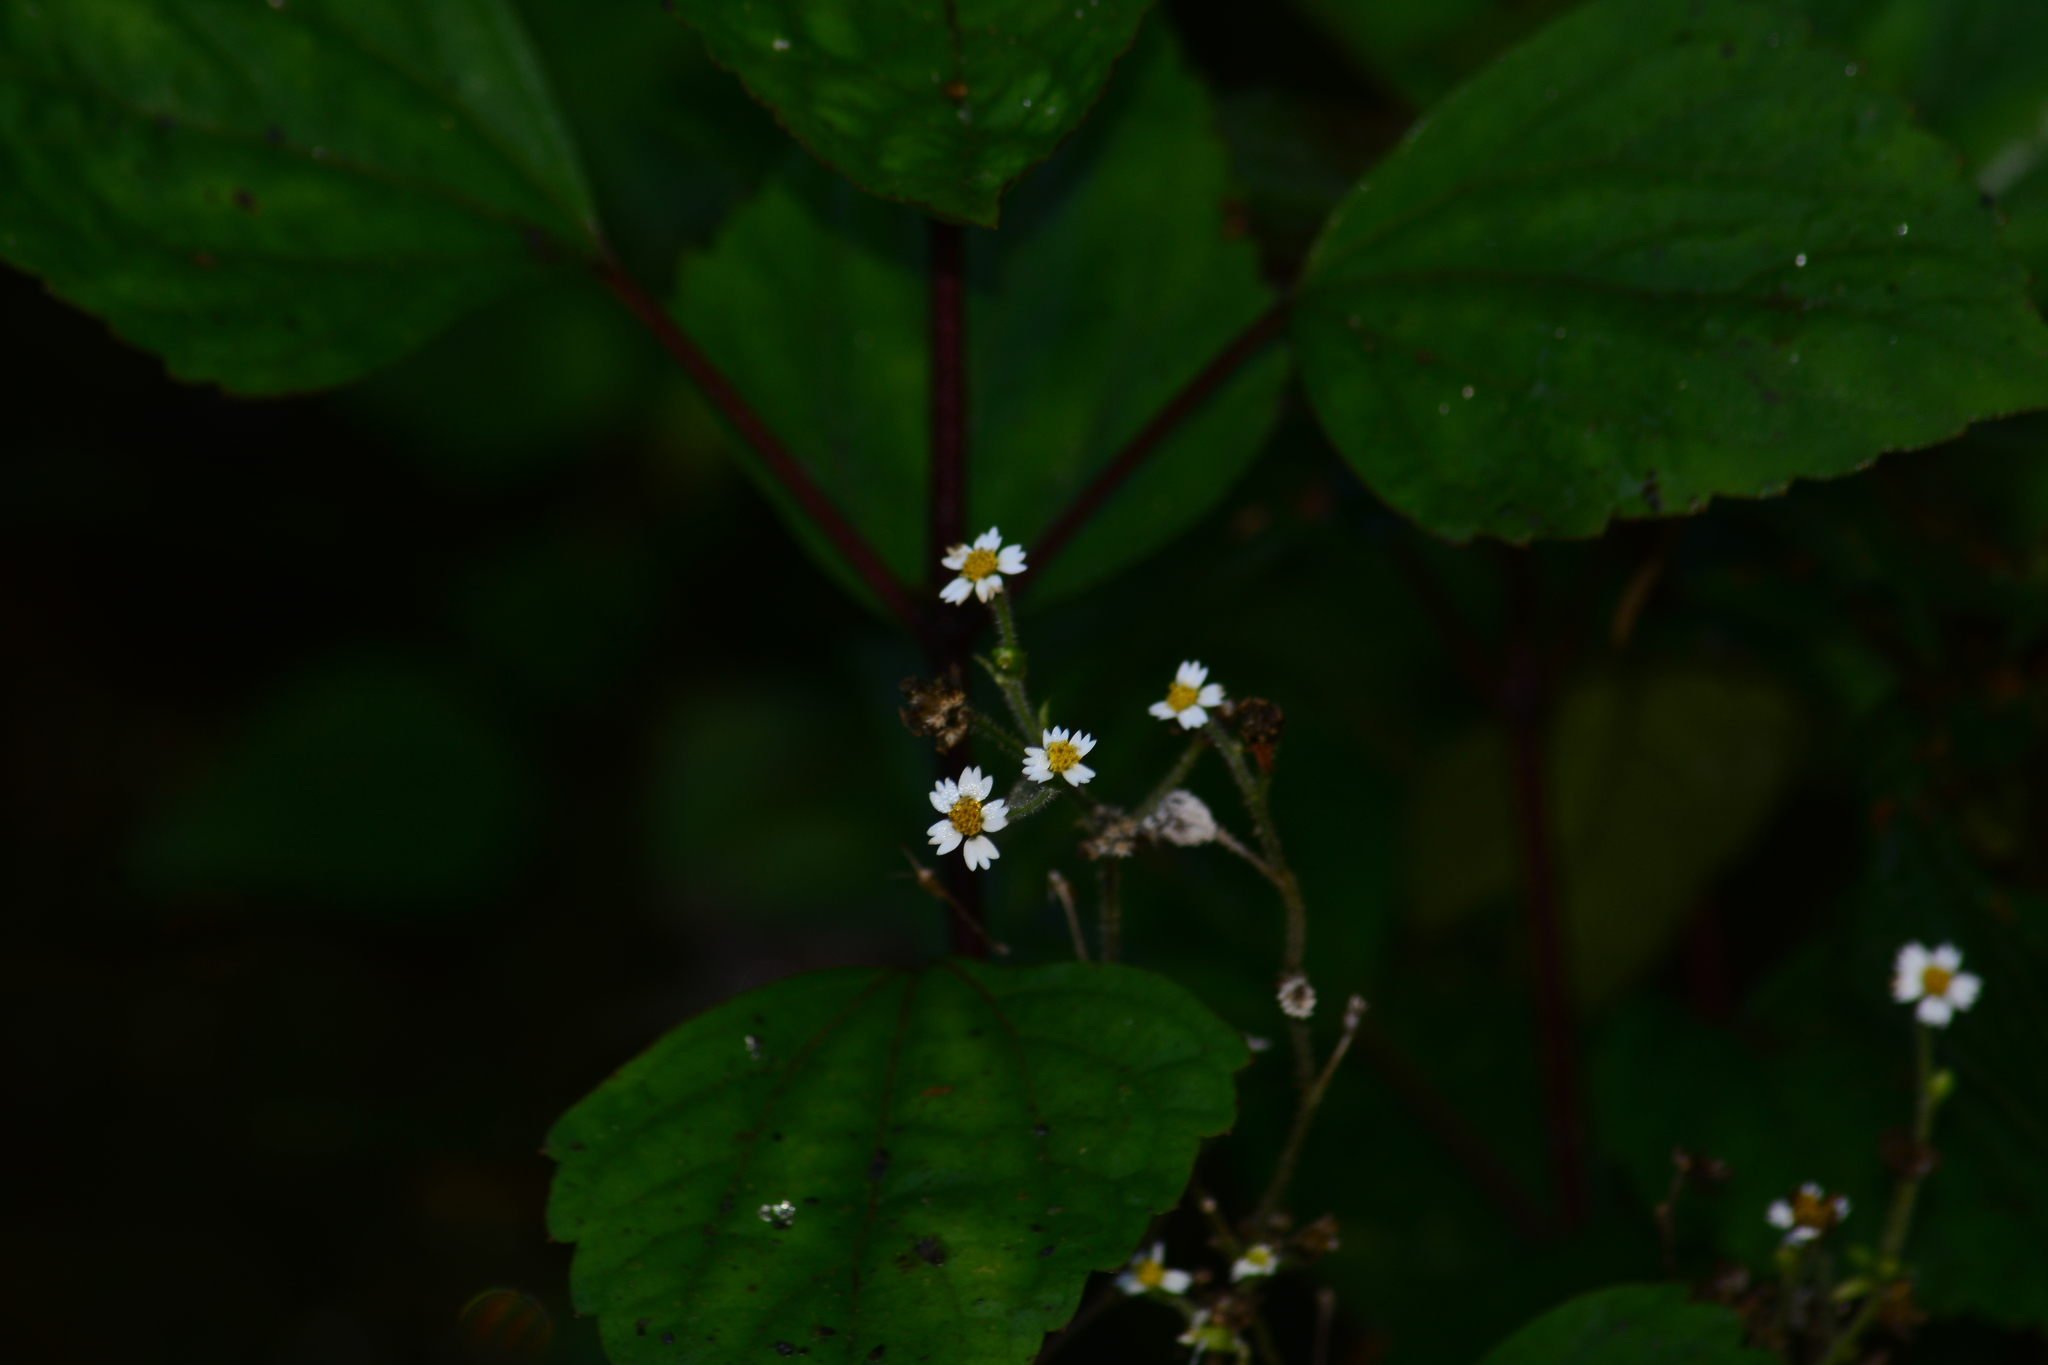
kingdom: Plantae
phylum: Tracheophyta
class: Magnoliopsida
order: Asterales
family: Asteraceae
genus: Galinsoga
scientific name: Galinsoga quadriradiata
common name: Shaggy soldier
